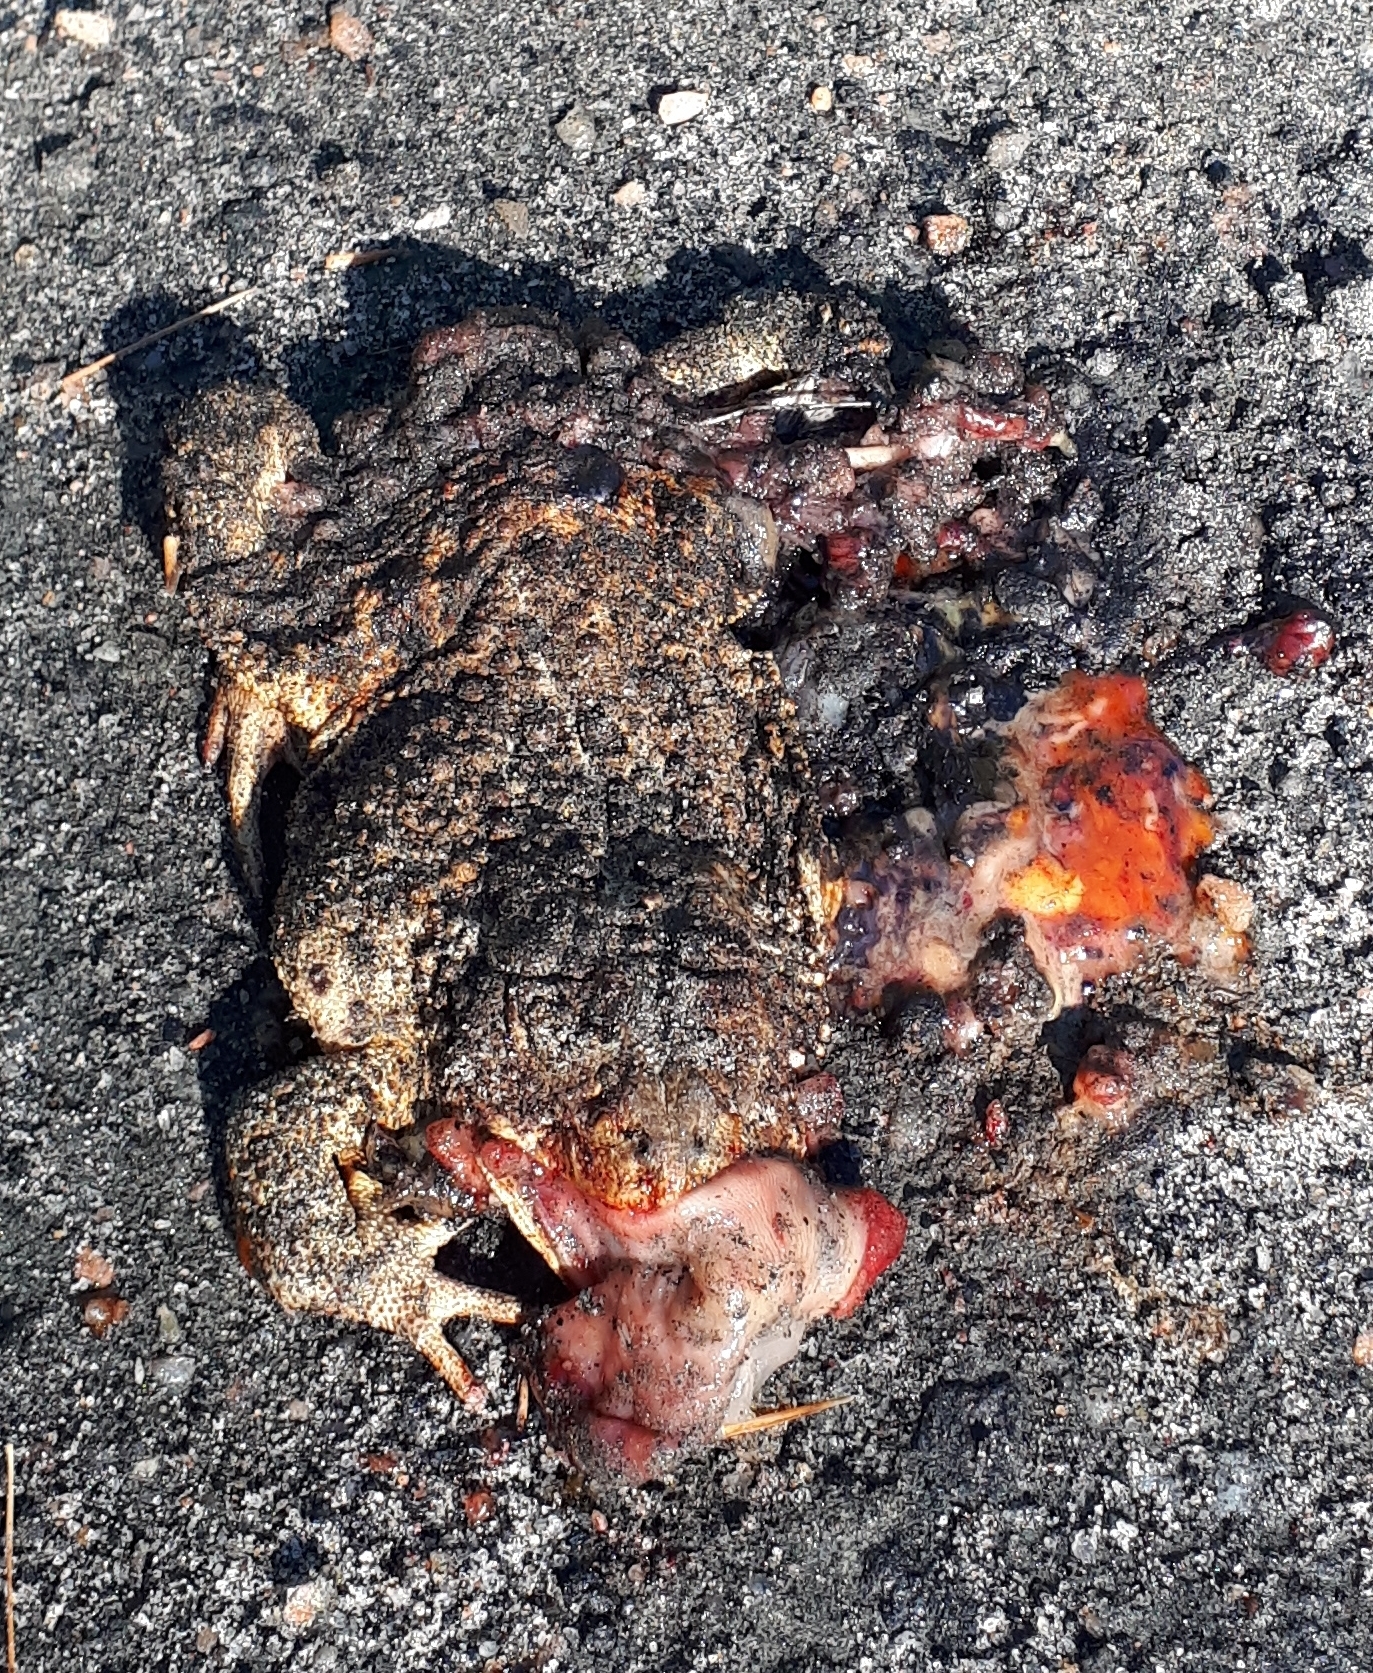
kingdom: Animalia
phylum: Chordata
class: Amphibia
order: Anura
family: Bufonidae
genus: Anaxyrus
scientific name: Anaxyrus americanus
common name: American toad
